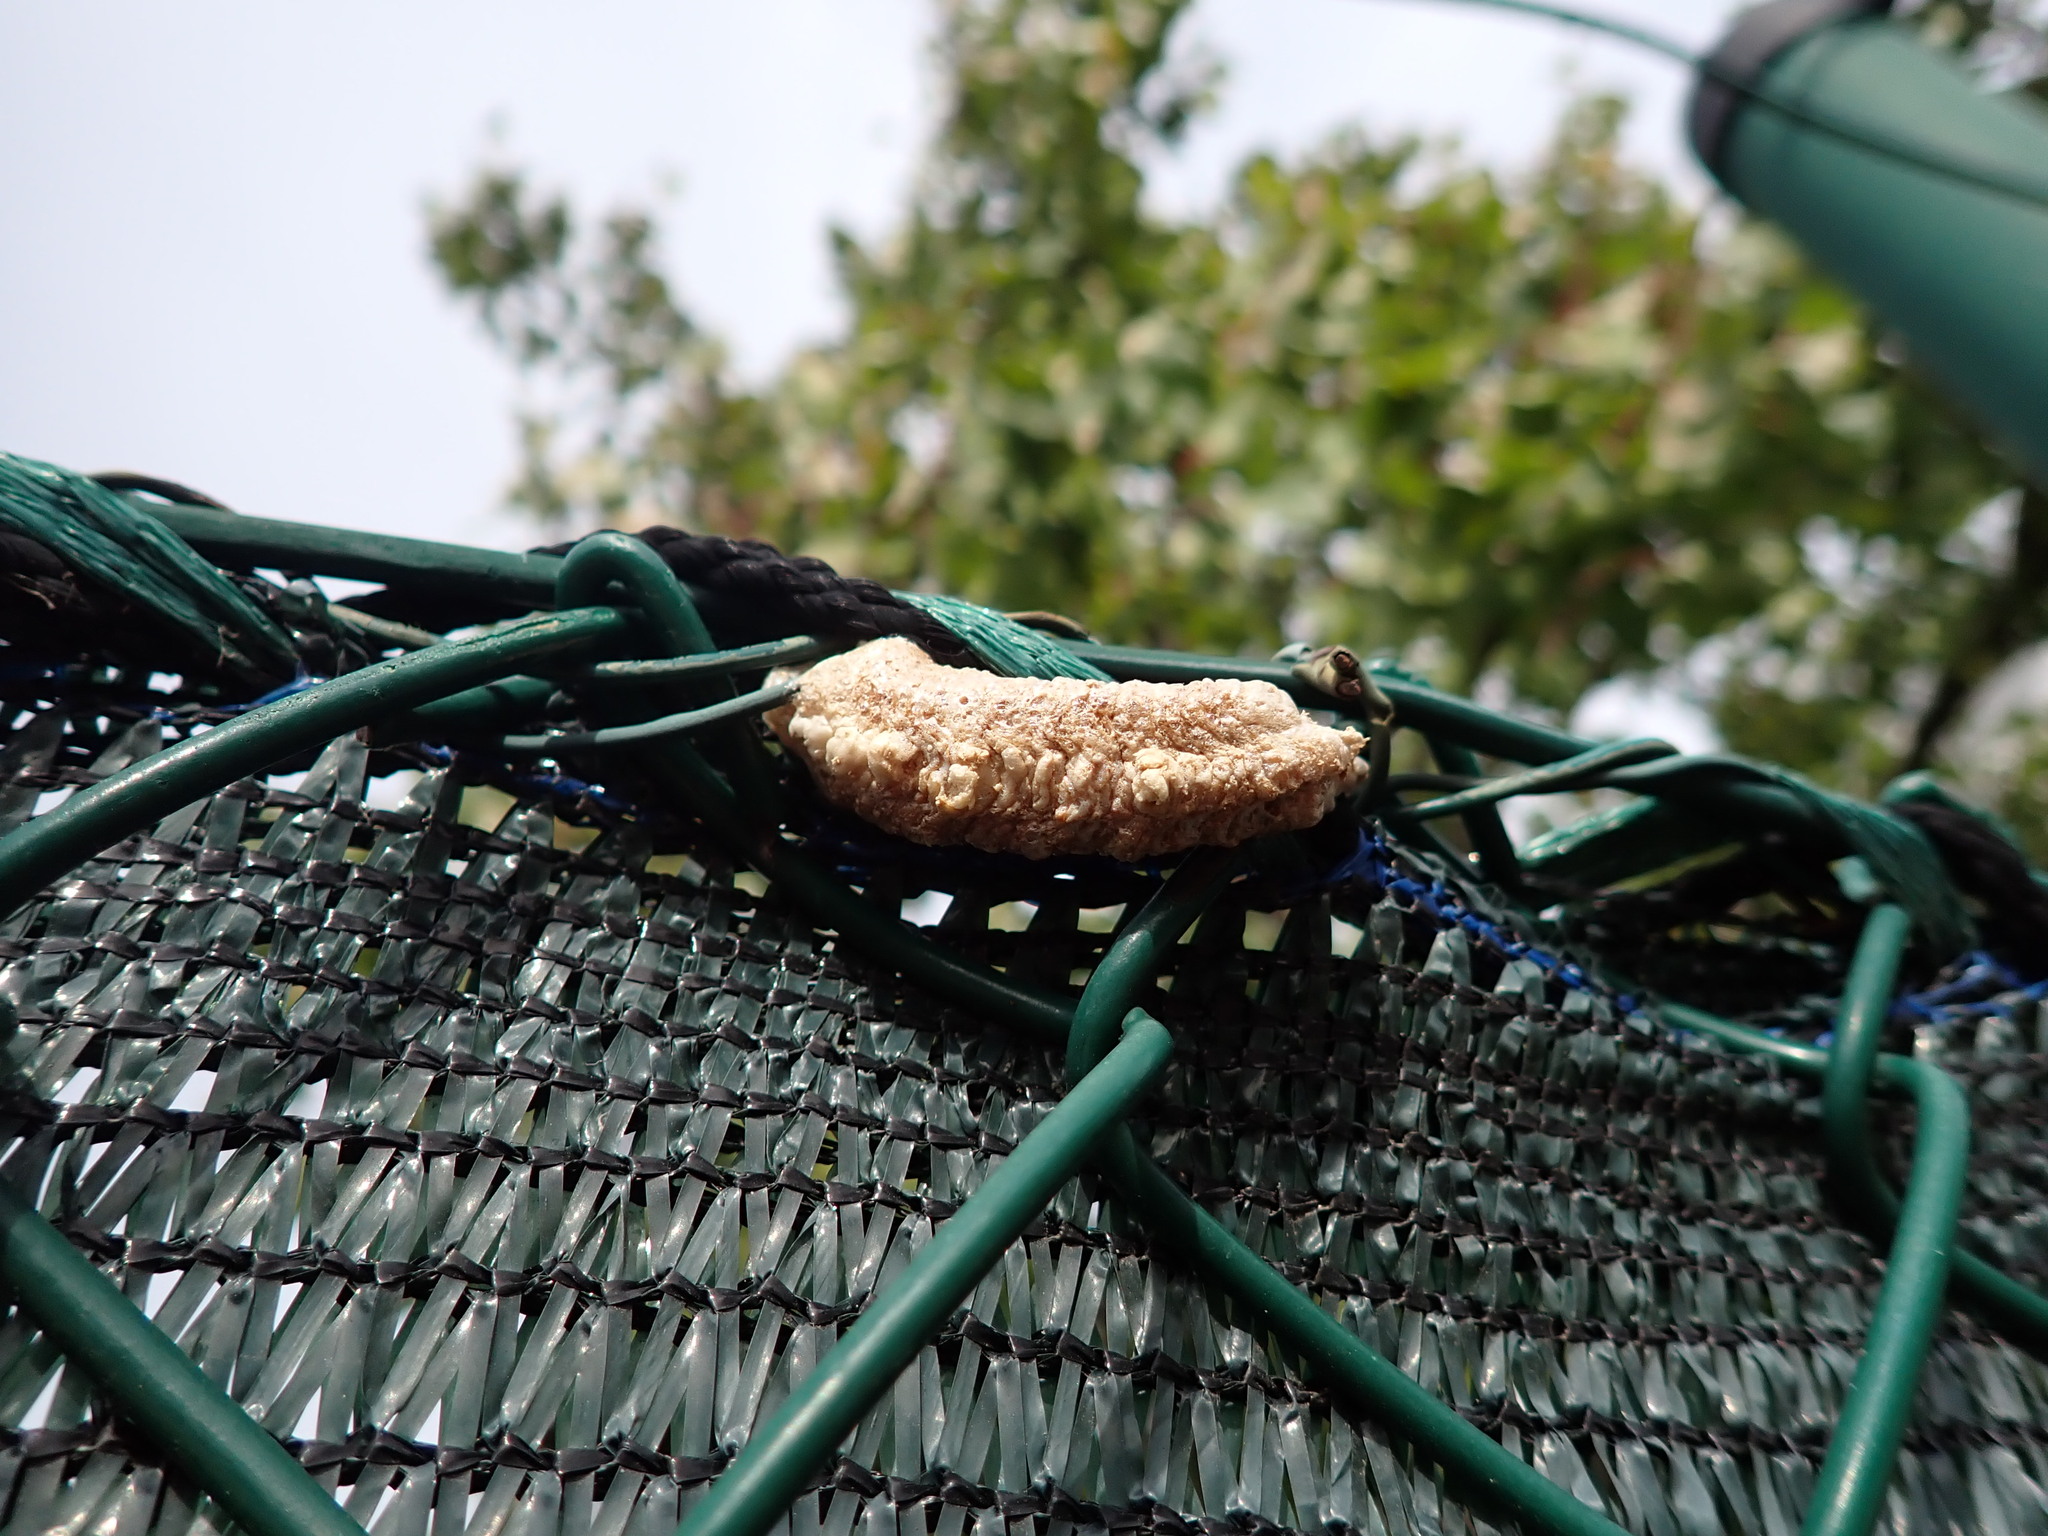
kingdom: Animalia
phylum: Arthropoda
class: Insecta
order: Mantodea
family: Mantidae
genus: Mantis
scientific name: Mantis religiosa
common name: Praying mantis
